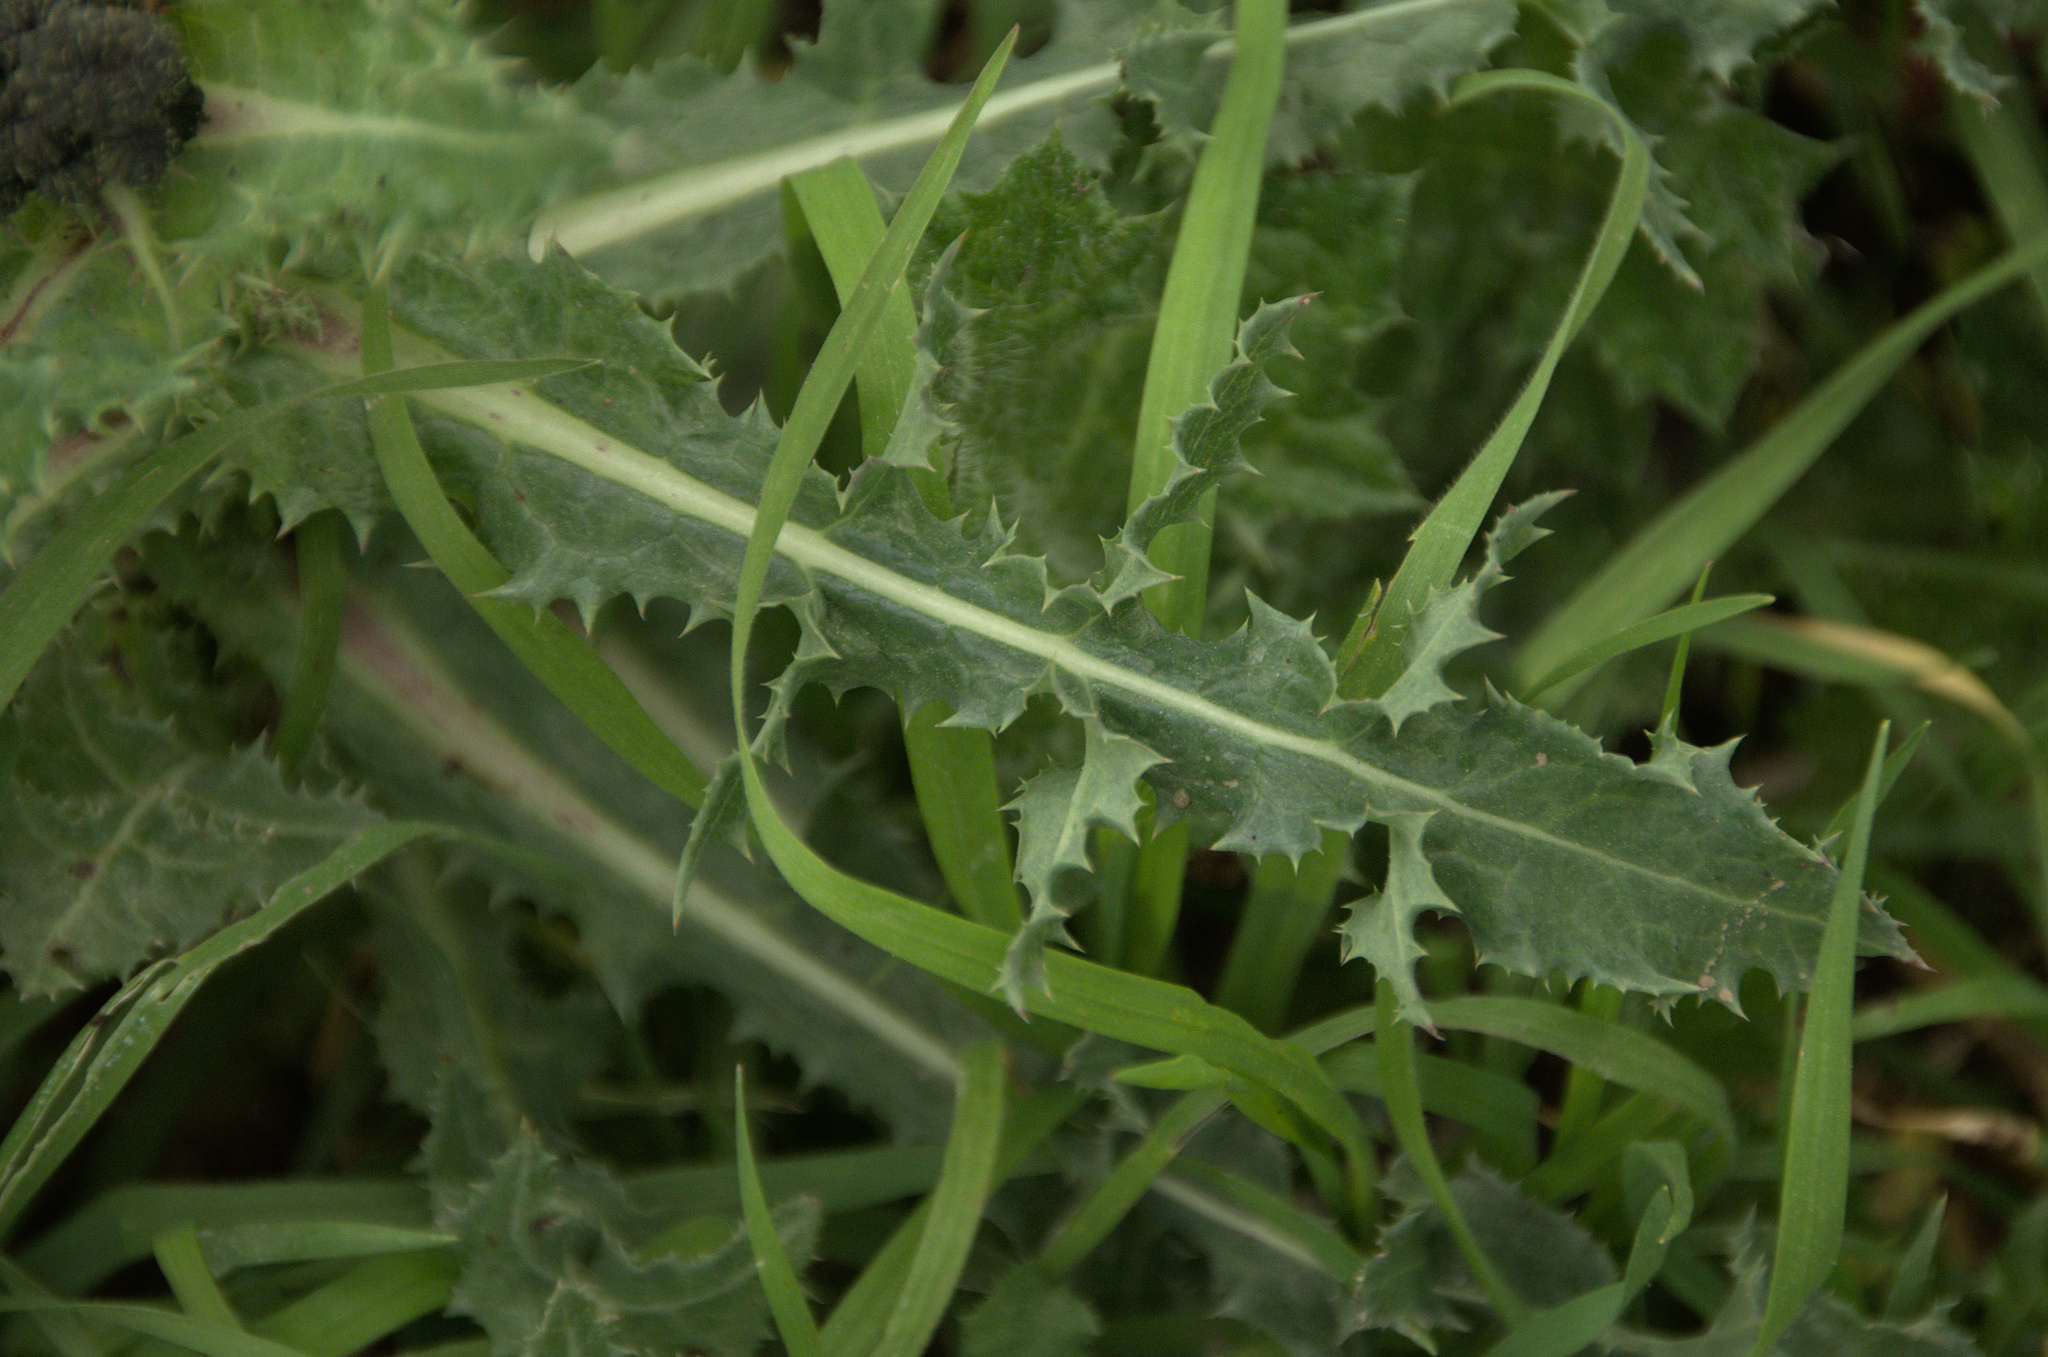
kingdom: Plantae
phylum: Tracheophyta
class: Magnoliopsida
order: Asterales
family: Asteraceae
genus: Sonchus
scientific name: Sonchus asper
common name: Prickly sow-thistle
